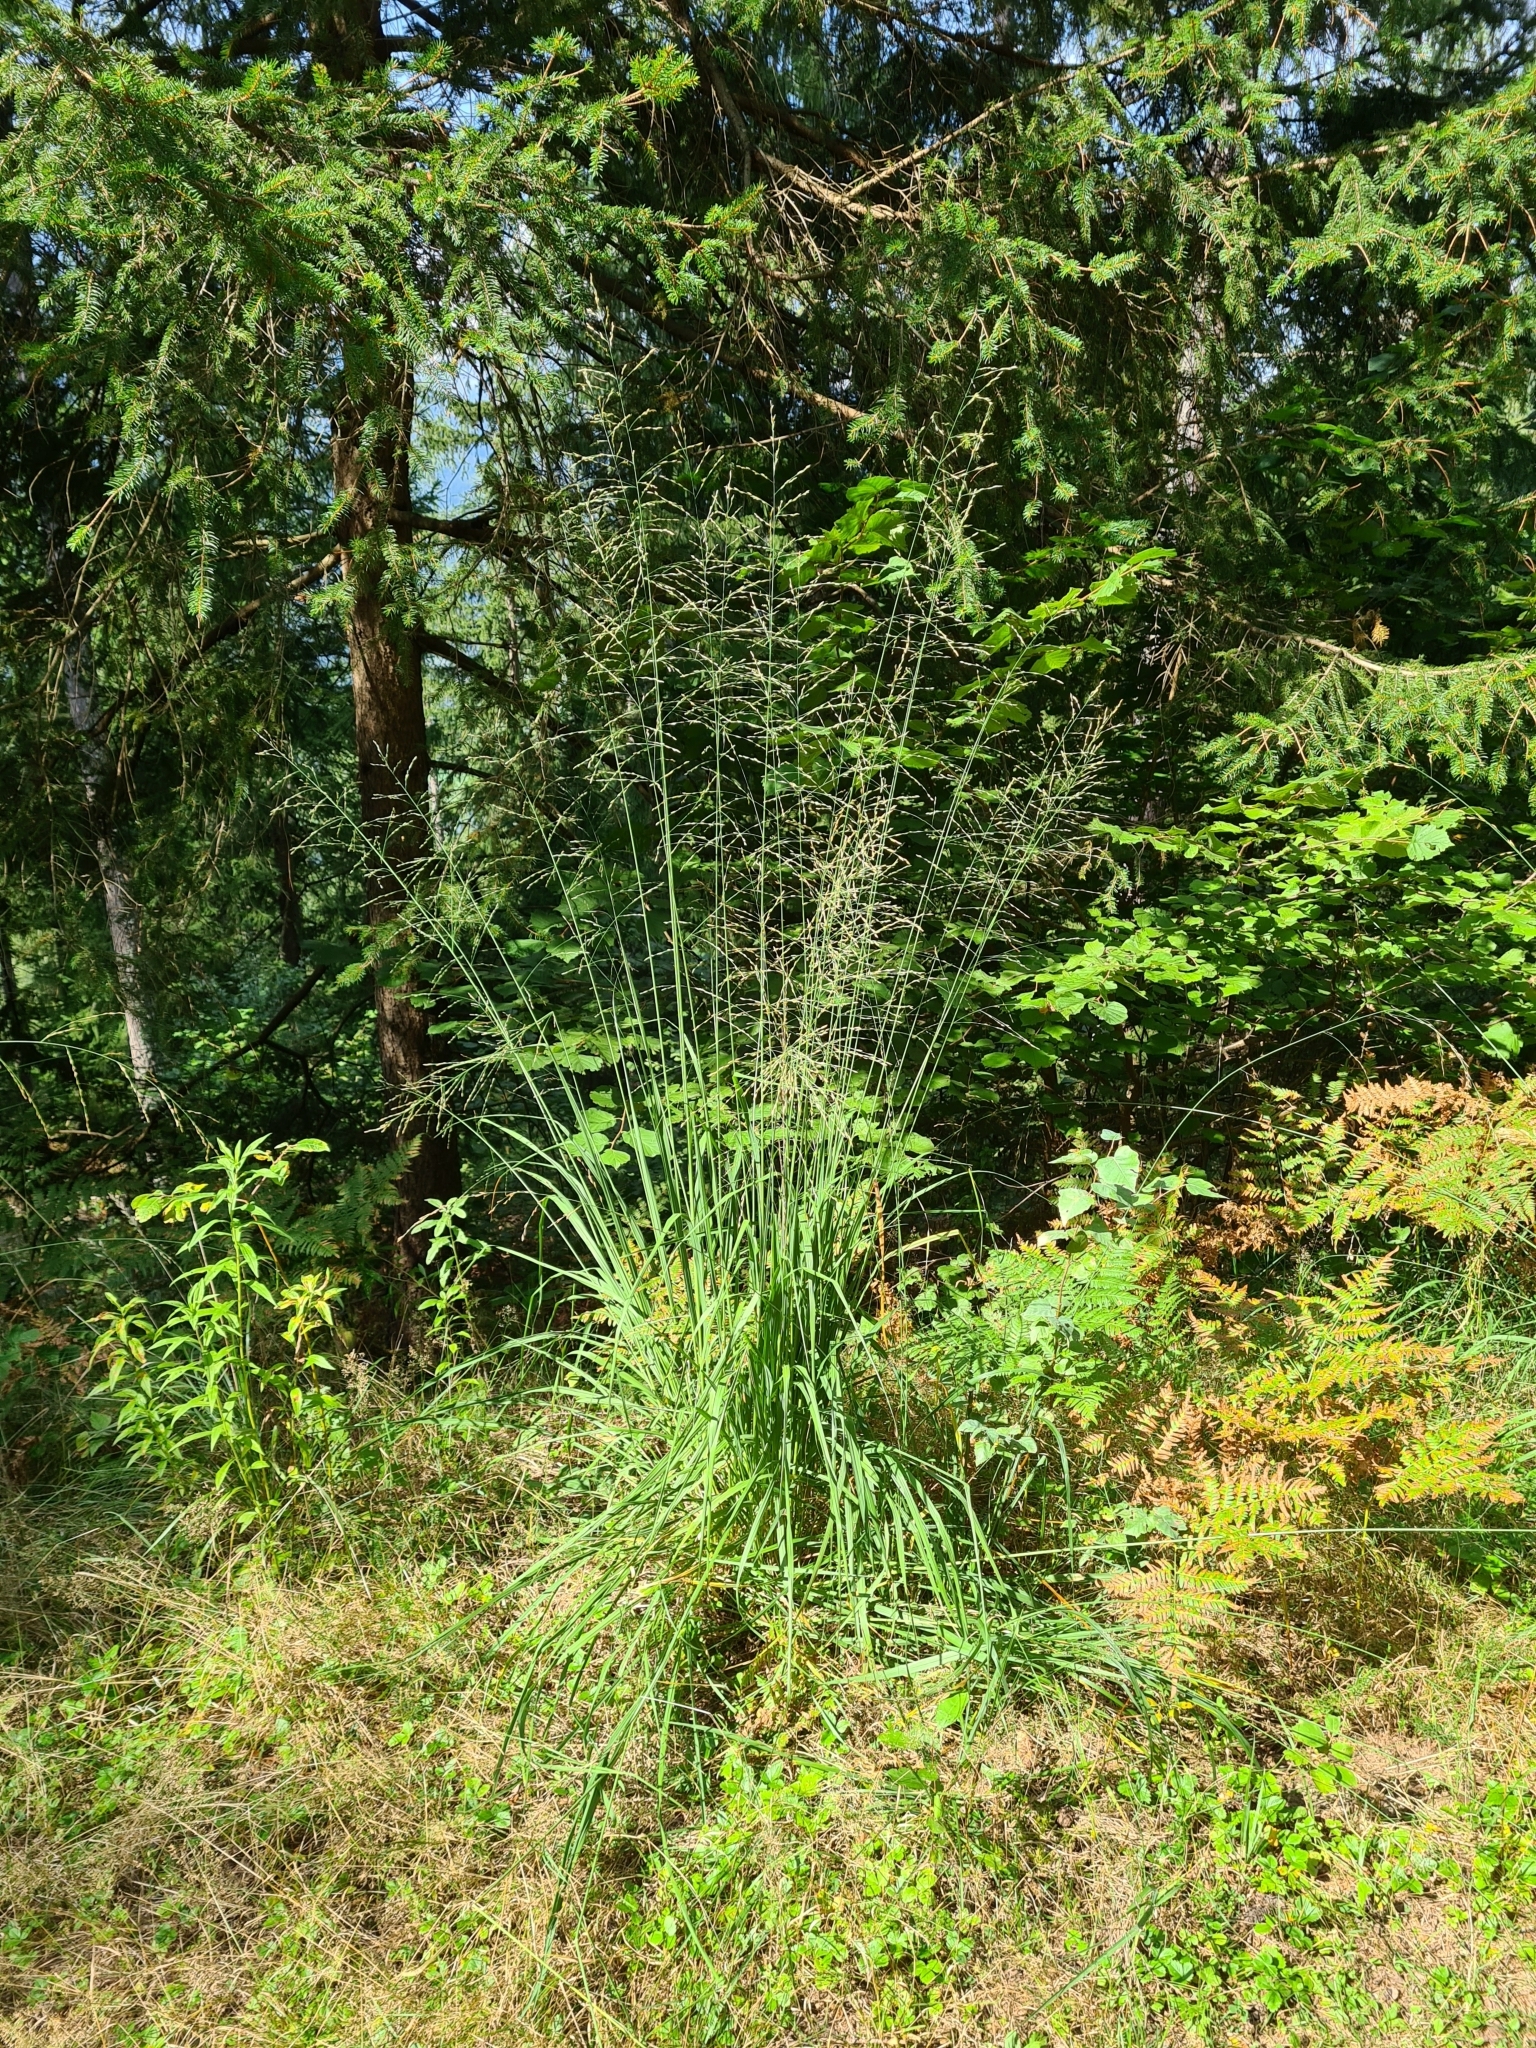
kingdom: Plantae
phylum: Tracheophyta
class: Liliopsida
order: Poales
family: Poaceae
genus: Molinia
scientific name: Molinia caerulea
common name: Purple moor-grass
